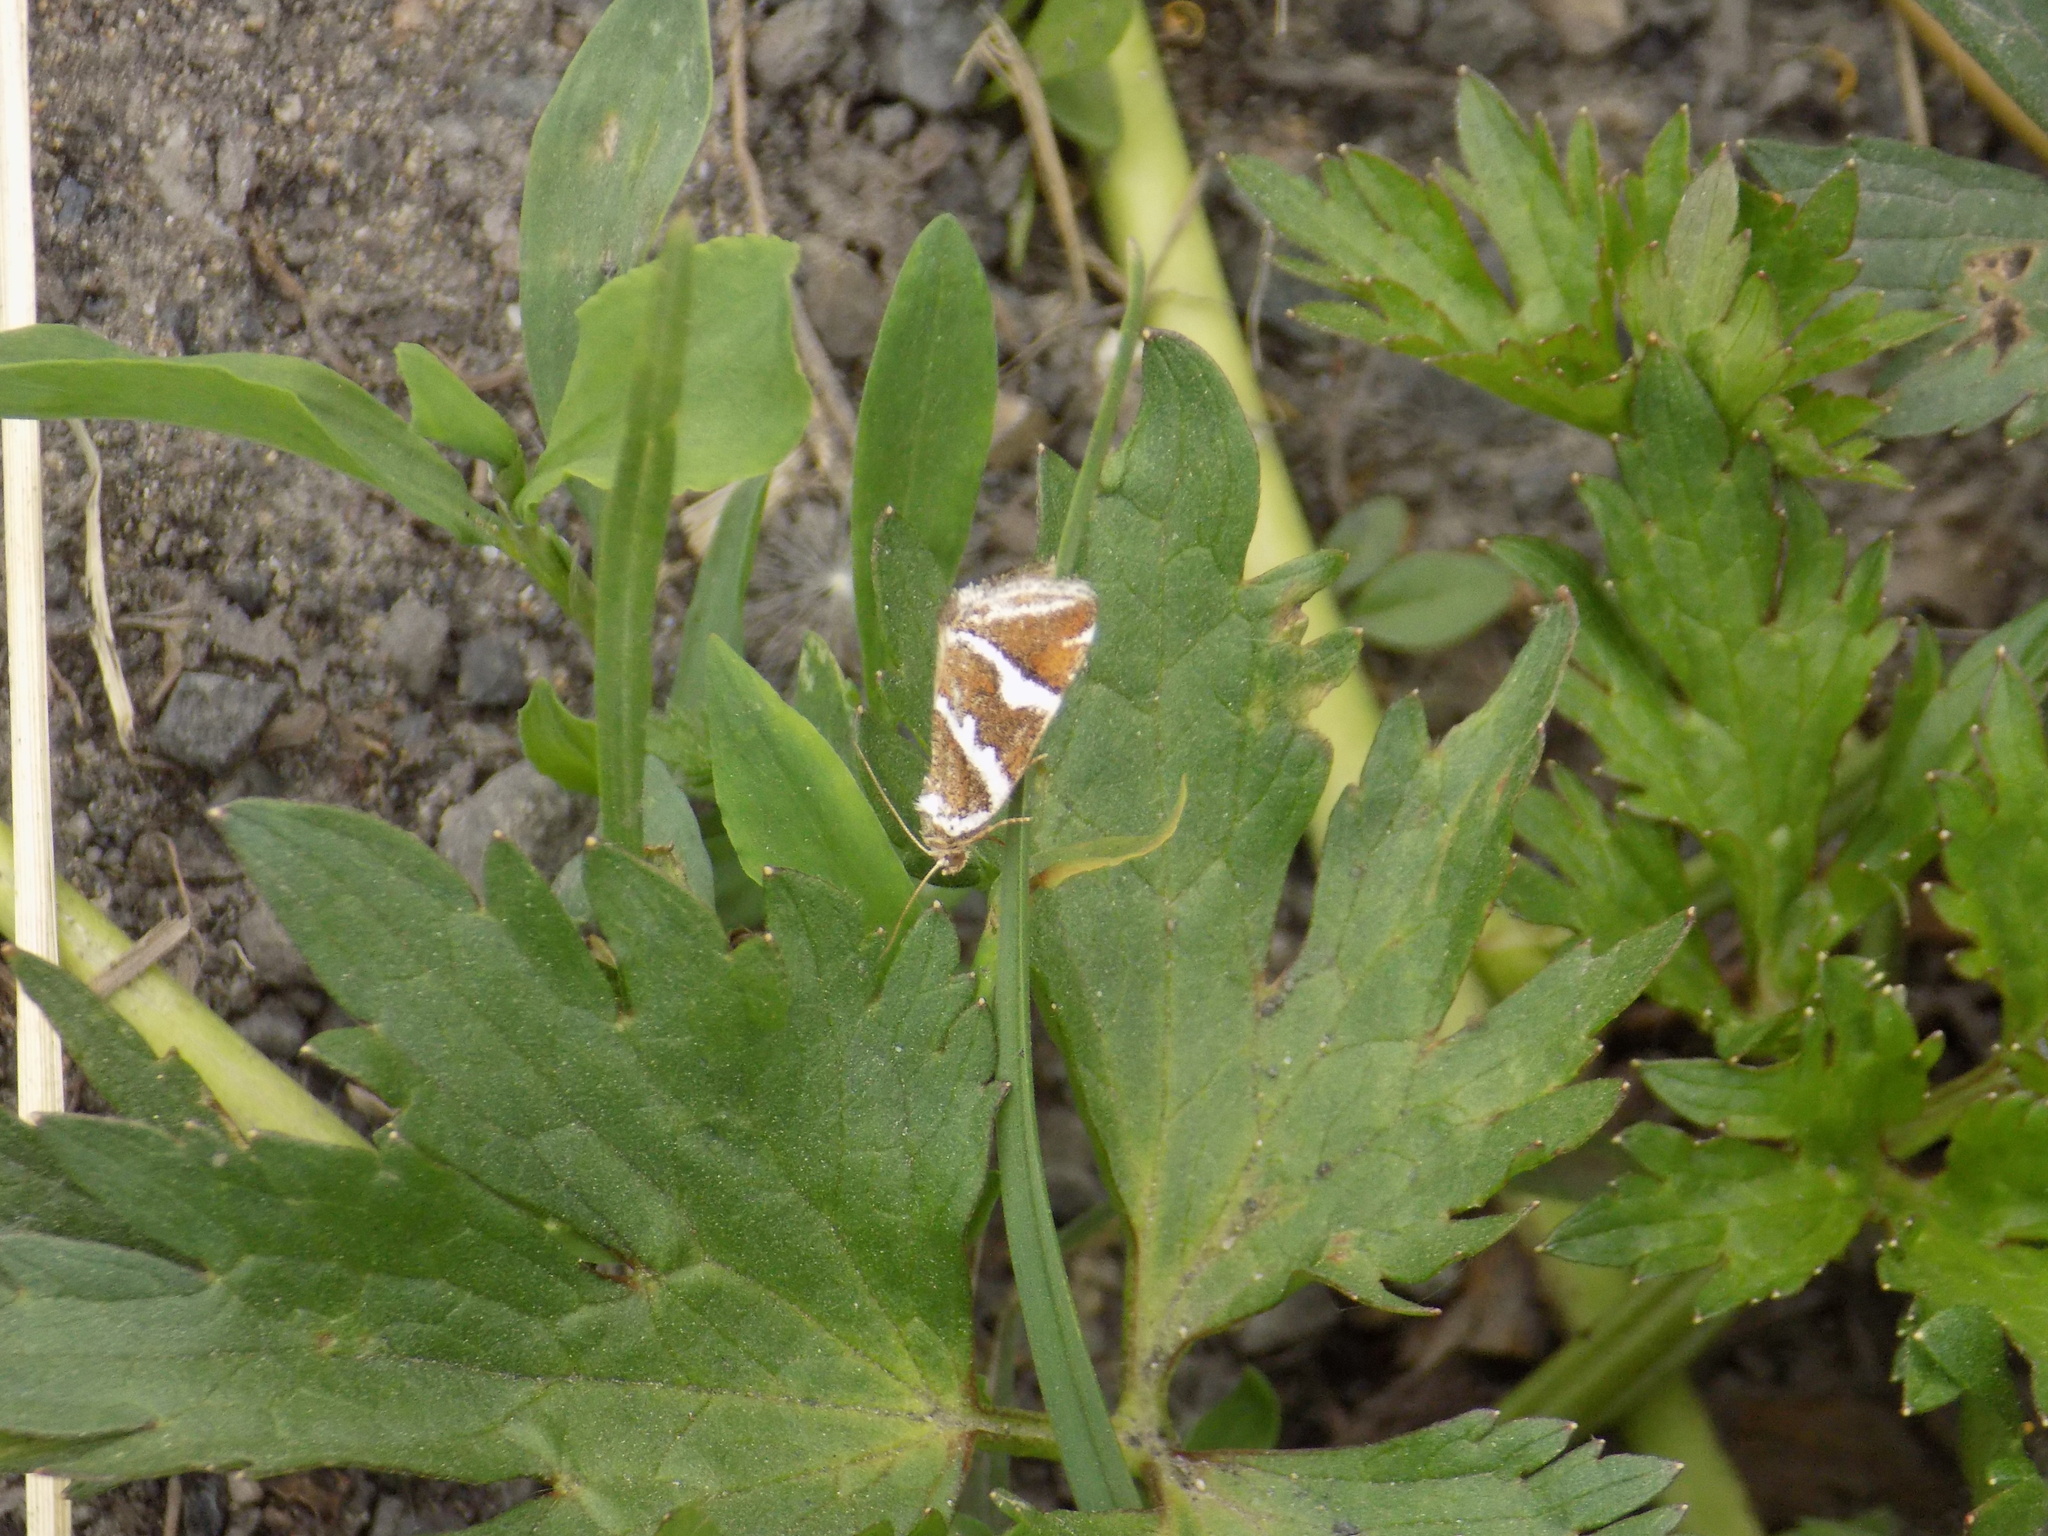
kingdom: Animalia
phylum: Arthropoda
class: Insecta
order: Lepidoptera
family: Noctuidae
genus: Deltote
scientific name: Deltote bankiana
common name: Silver barred
